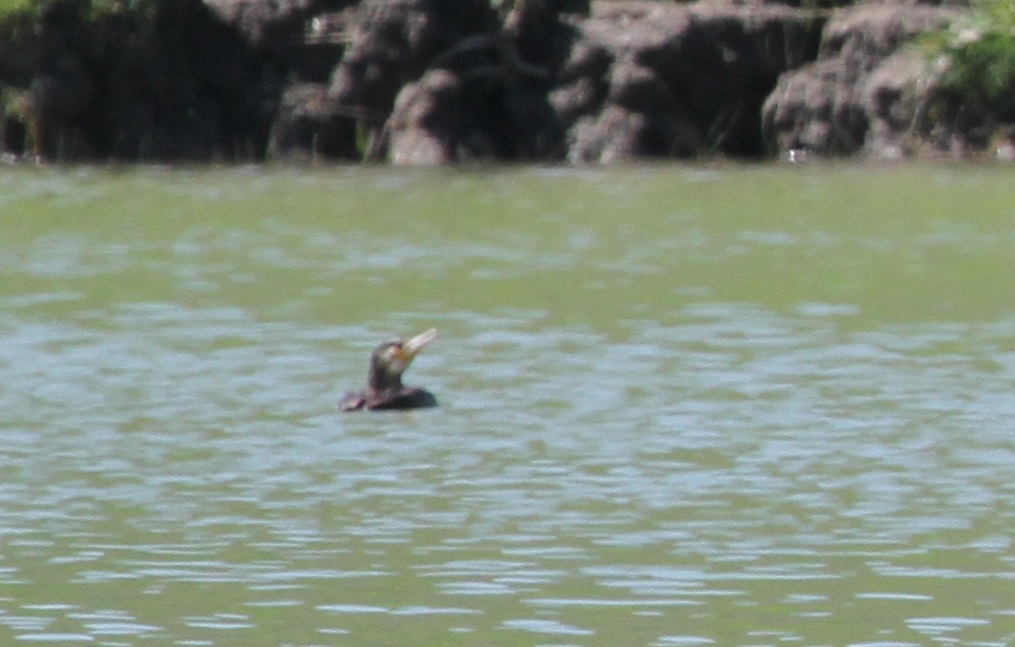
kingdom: Animalia
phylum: Chordata
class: Aves
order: Suliformes
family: Phalacrocoracidae
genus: Phalacrocorax
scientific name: Phalacrocorax carbo
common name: Great cormorant
